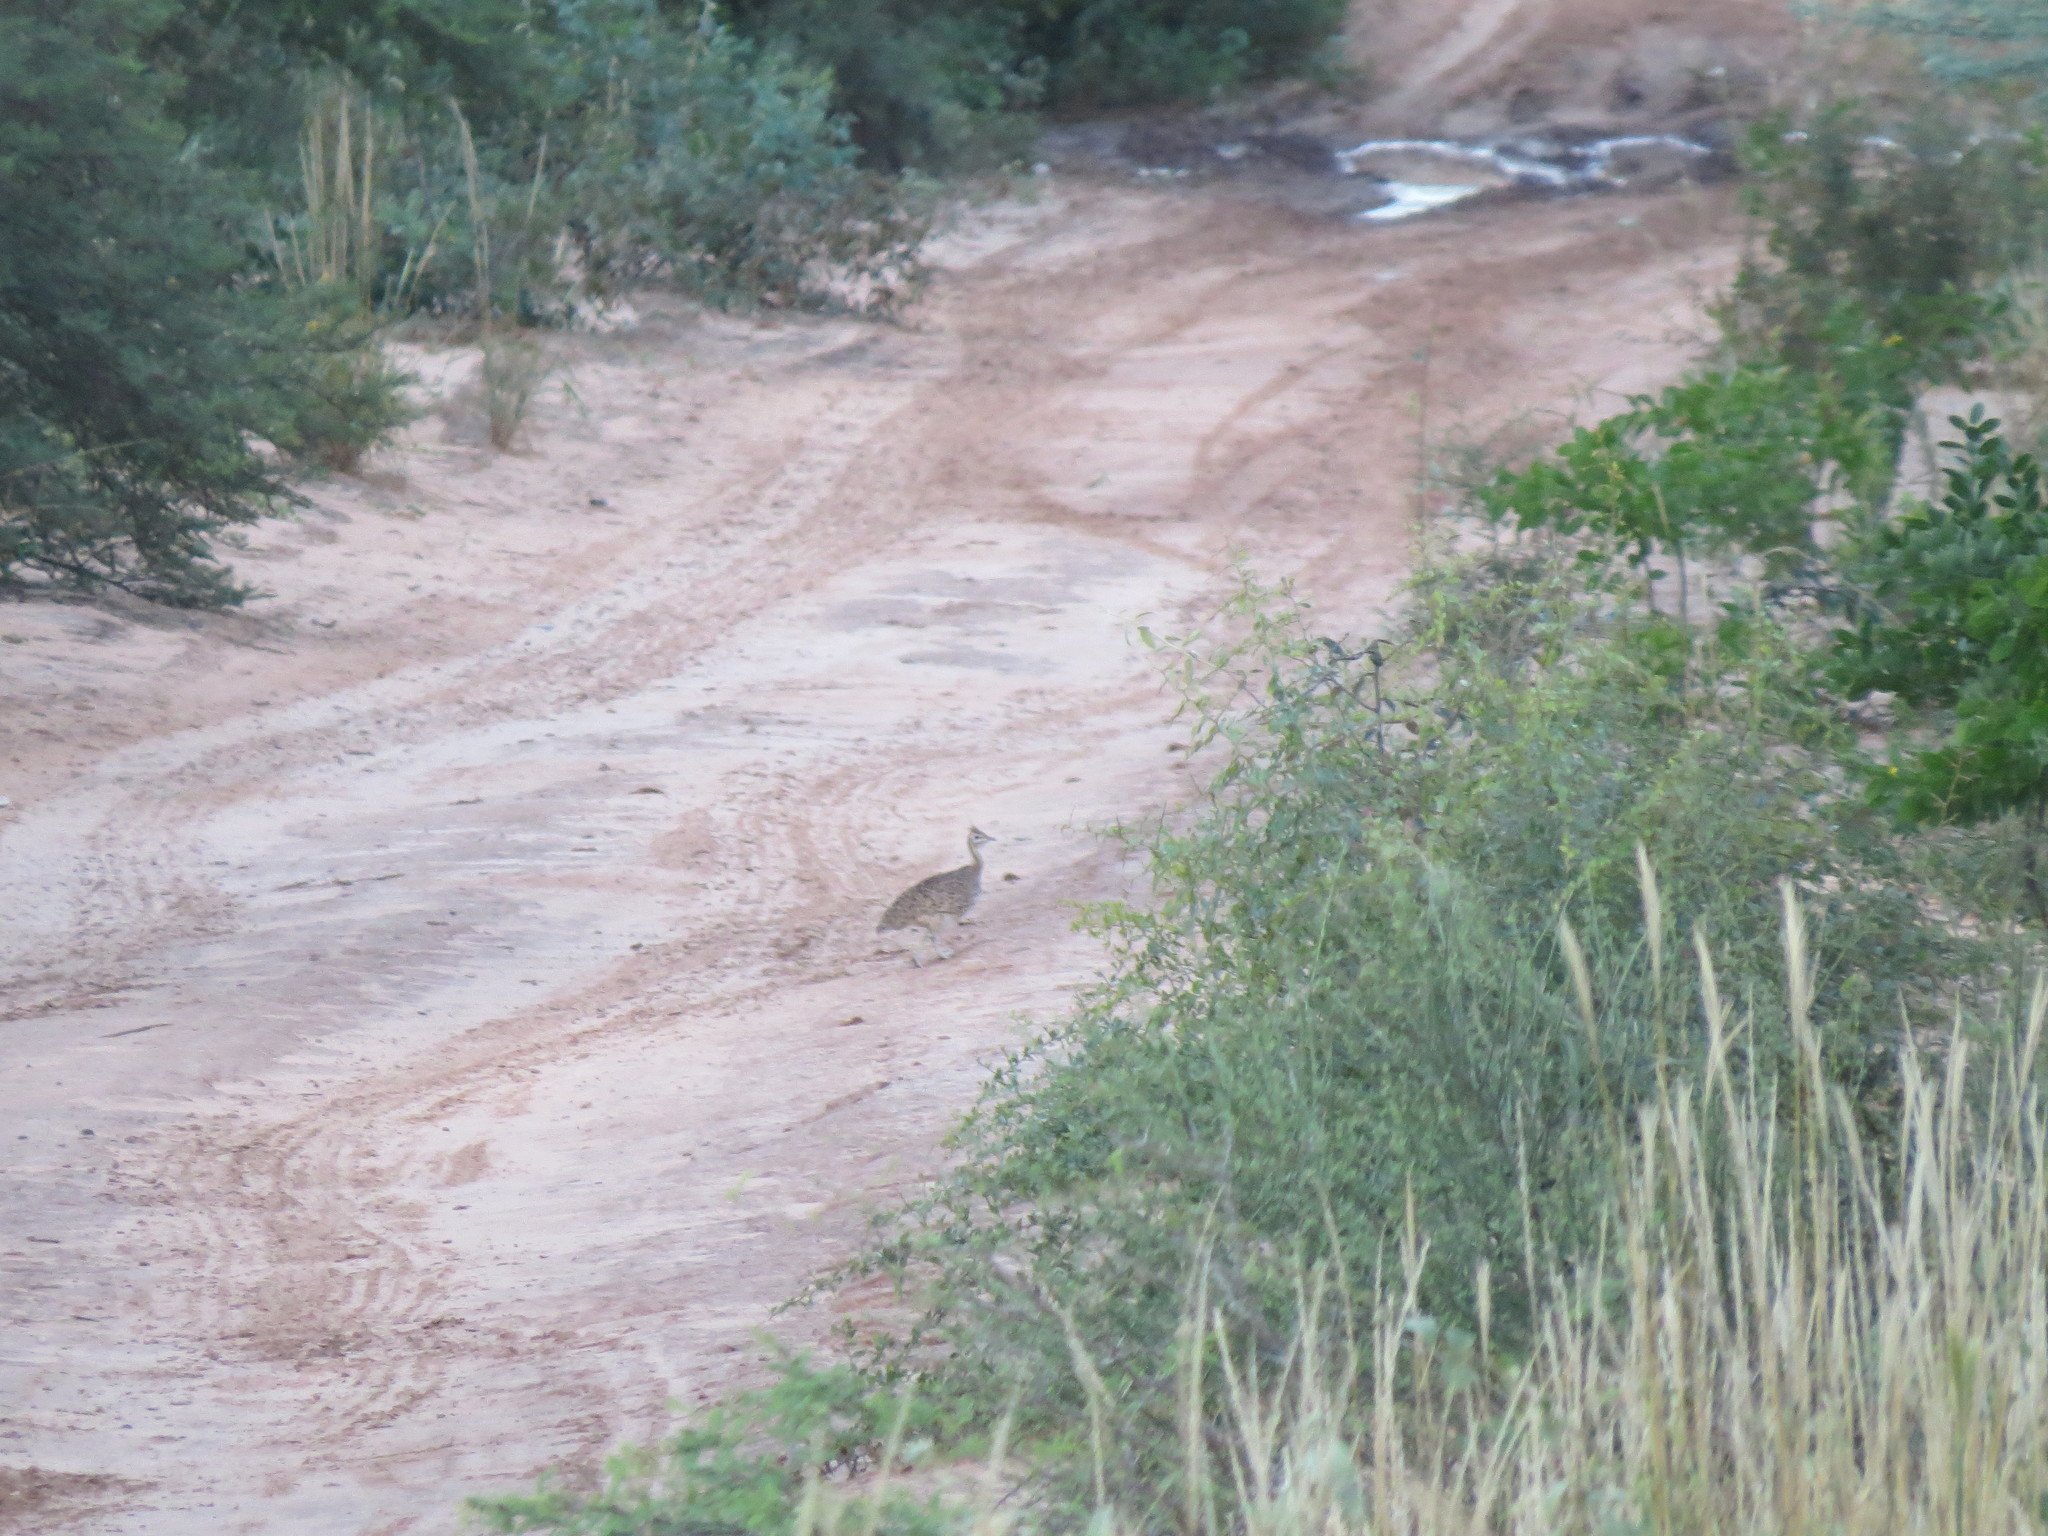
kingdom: Animalia
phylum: Chordata
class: Aves
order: Tinamiformes
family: Tinamidae
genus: Eudromia
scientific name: Eudromia formosa
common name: Quebracho crested tinamou
